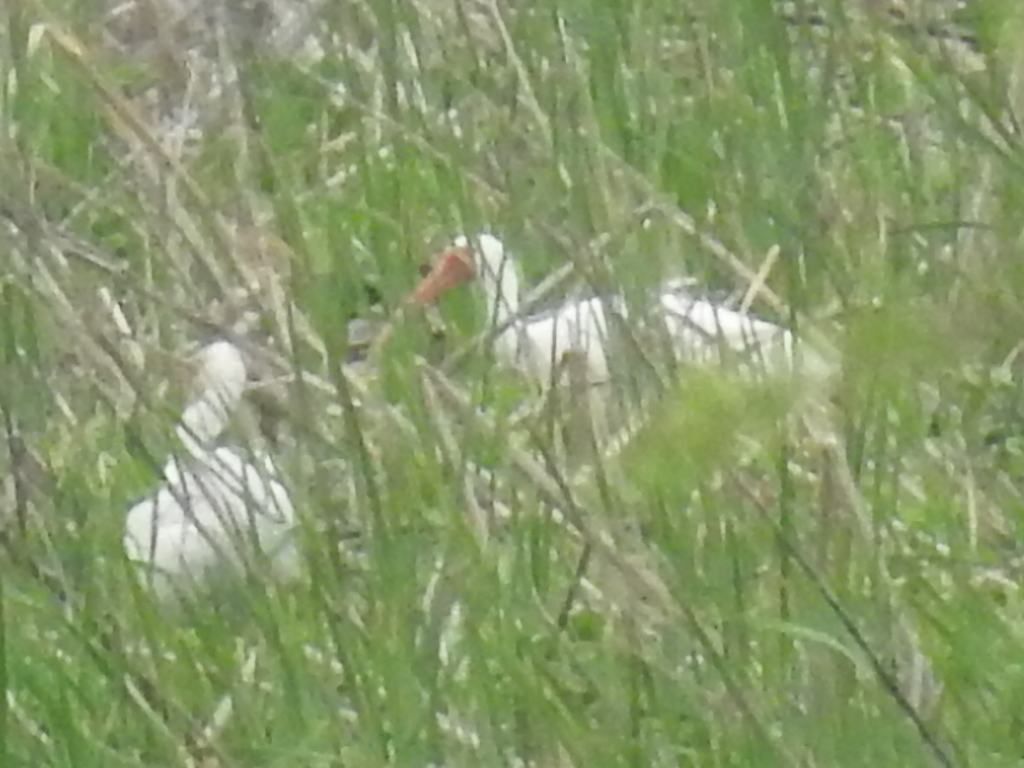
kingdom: Animalia
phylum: Chordata
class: Aves
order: Pelecaniformes
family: Threskiornithidae
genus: Eudocimus
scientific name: Eudocimus albus
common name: White ibis
